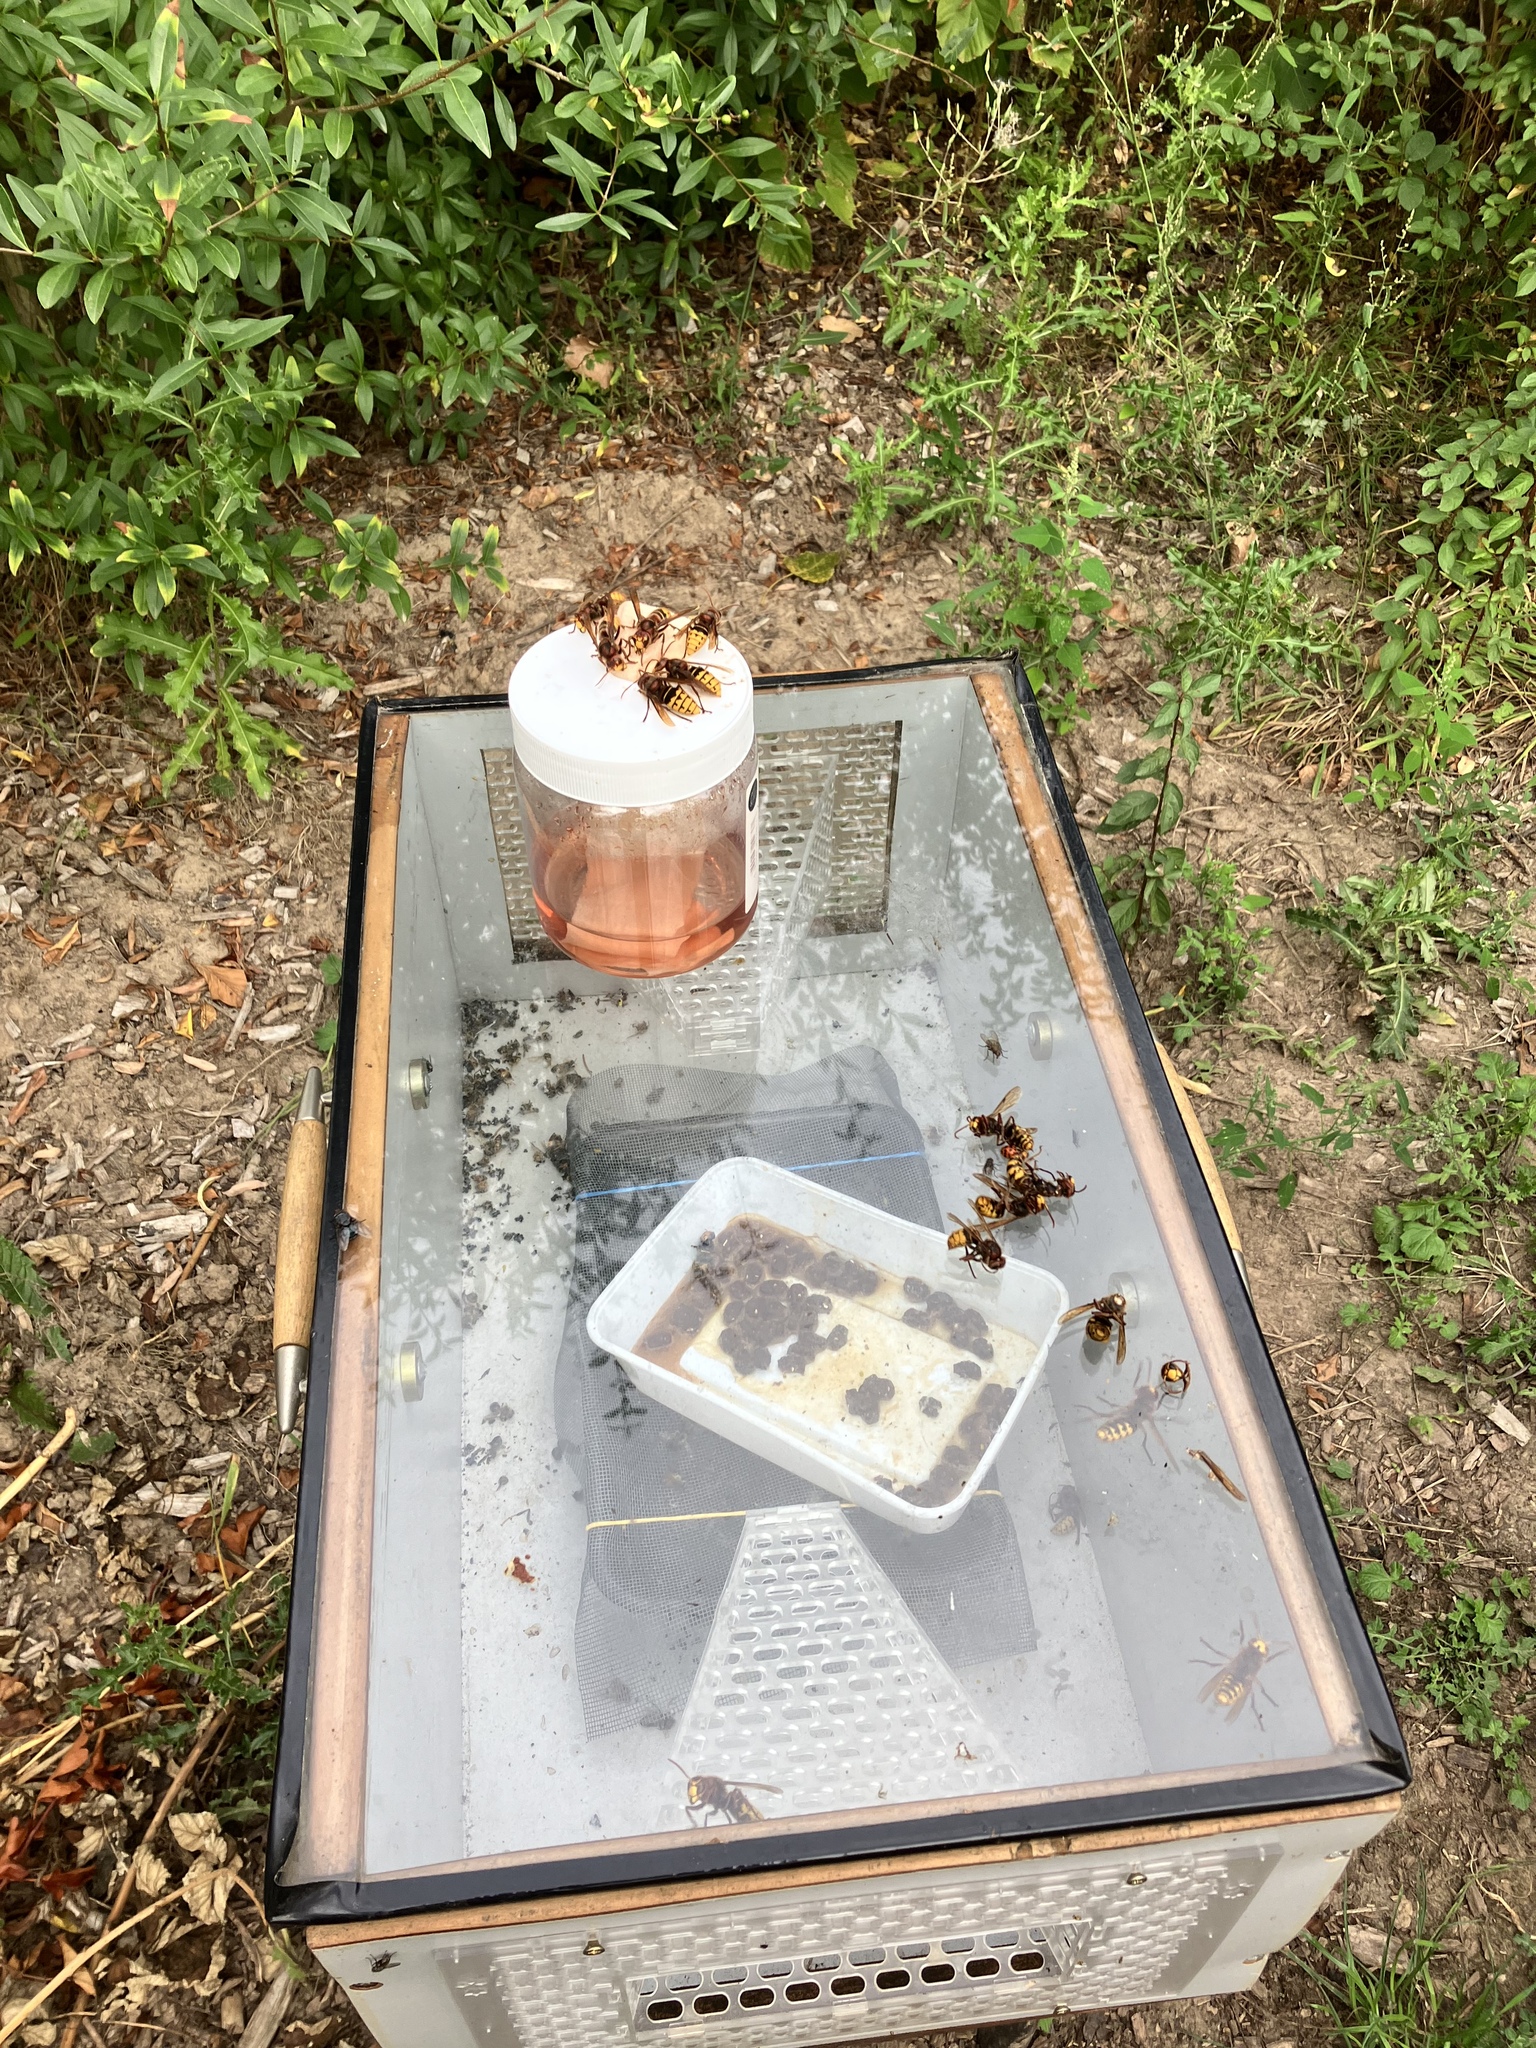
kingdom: Animalia
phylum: Arthropoda
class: Insecta
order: Hymenoptera
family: Vespidae
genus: Vespa
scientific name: Vespa crabro
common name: Hornet
